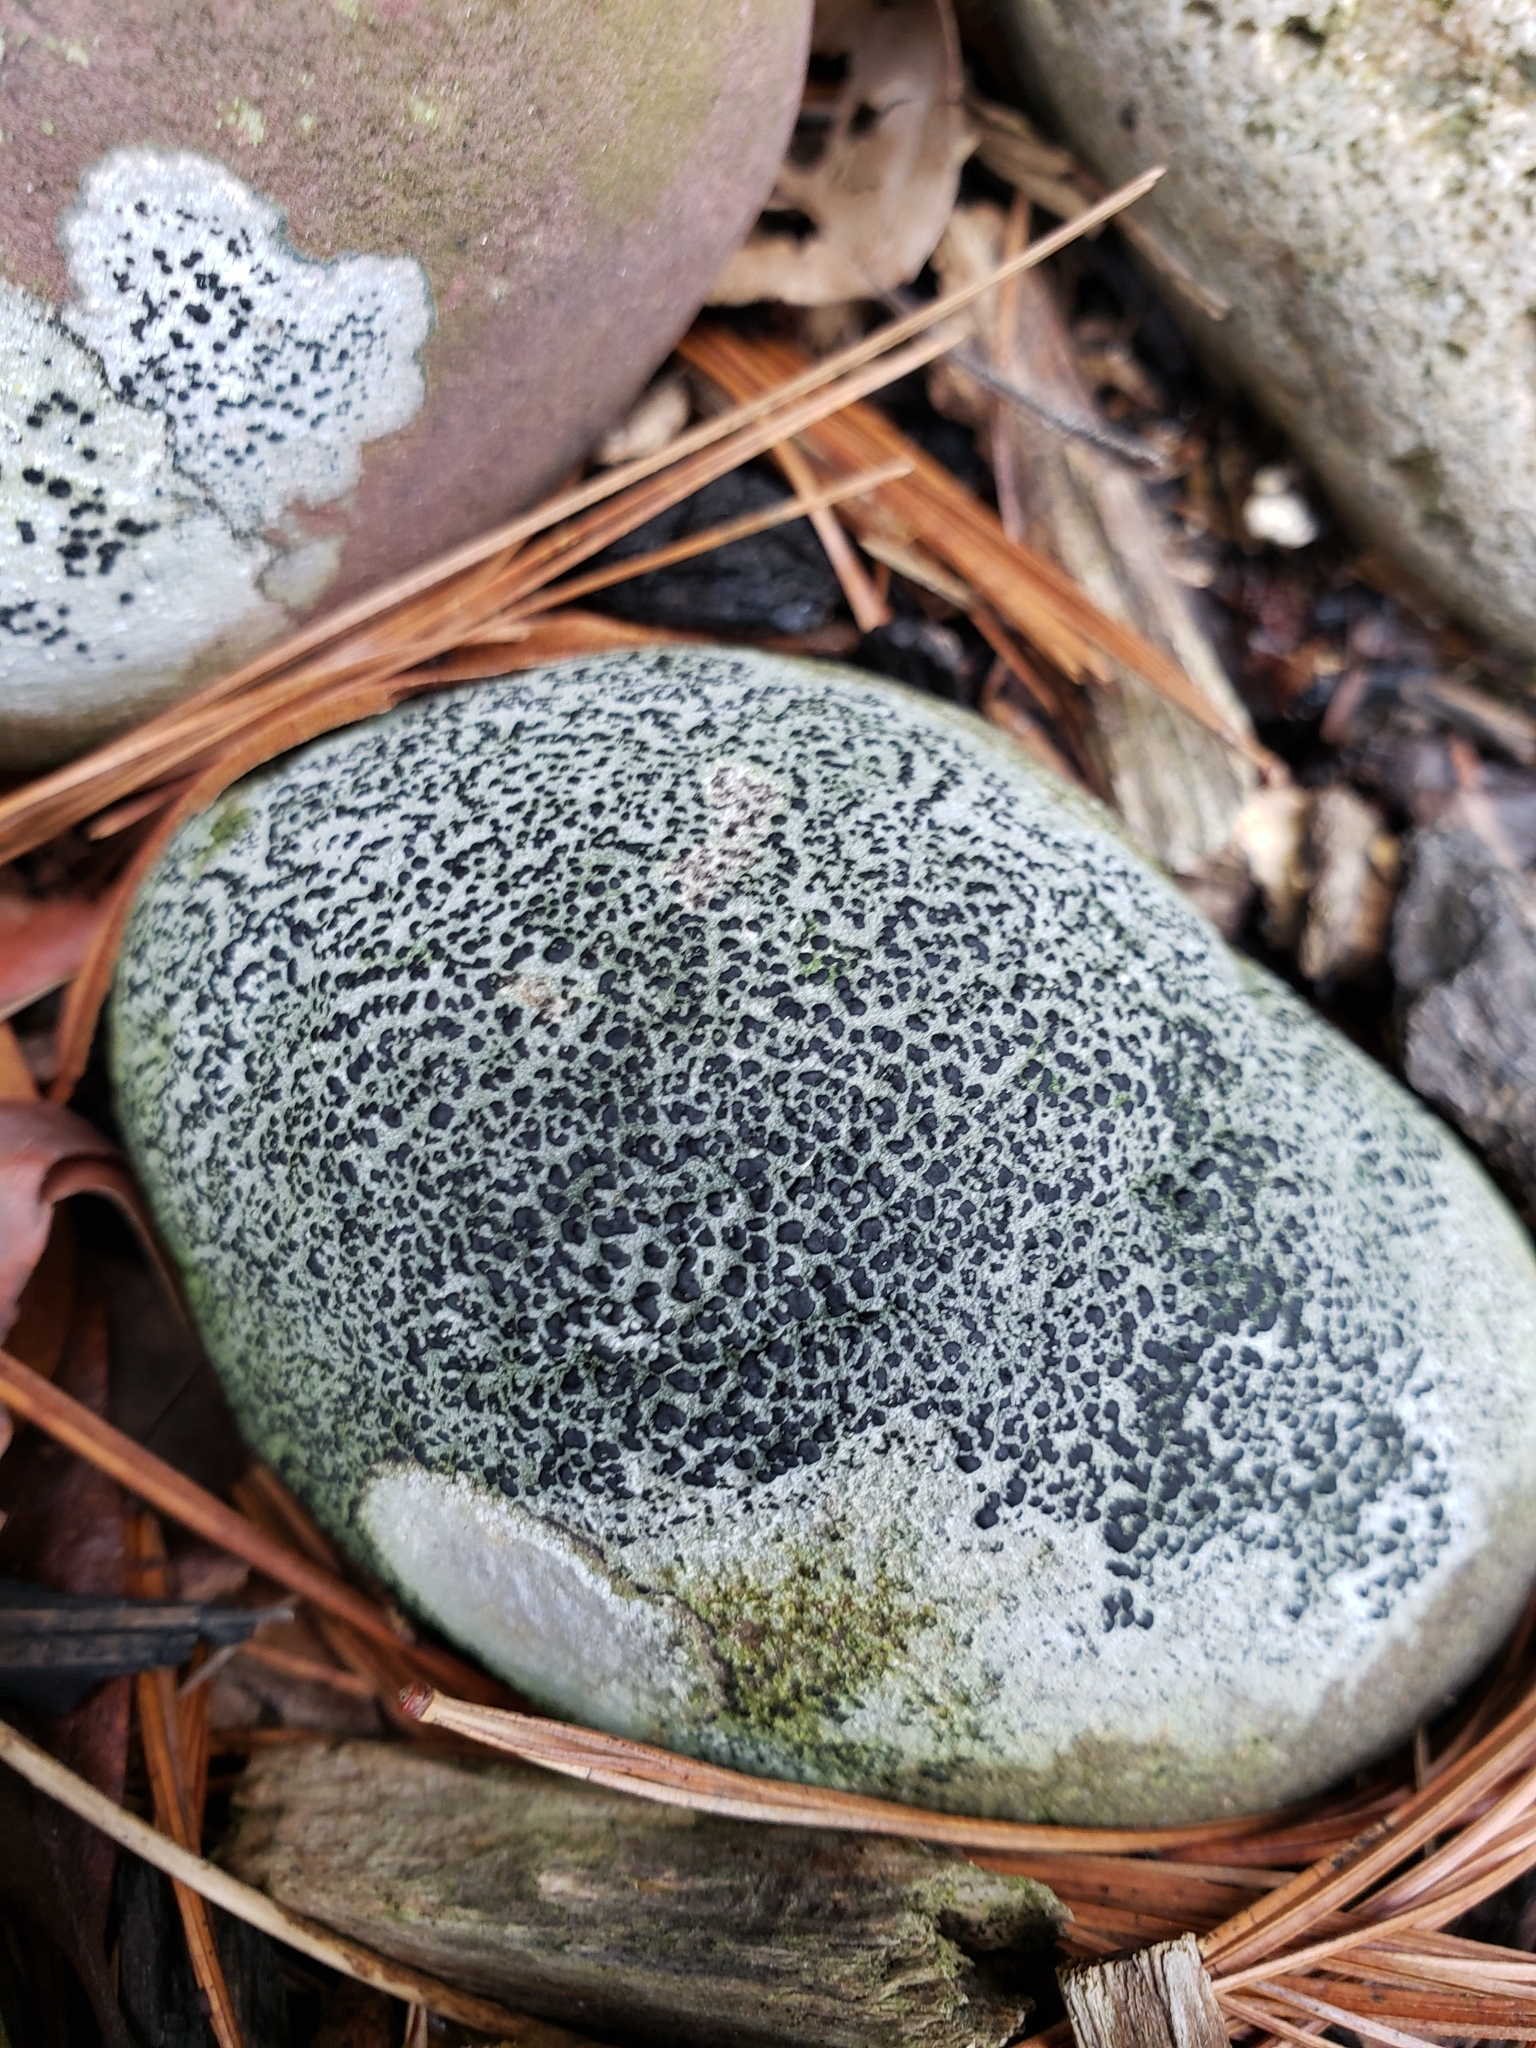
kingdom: Fungi
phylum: Ascomycota
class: Lecanoromycetes
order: Lecideales
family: Lecideaceae
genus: Porpidia
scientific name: Porpidia albocaerulescens
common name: Smokey-eyed boulder lichen
